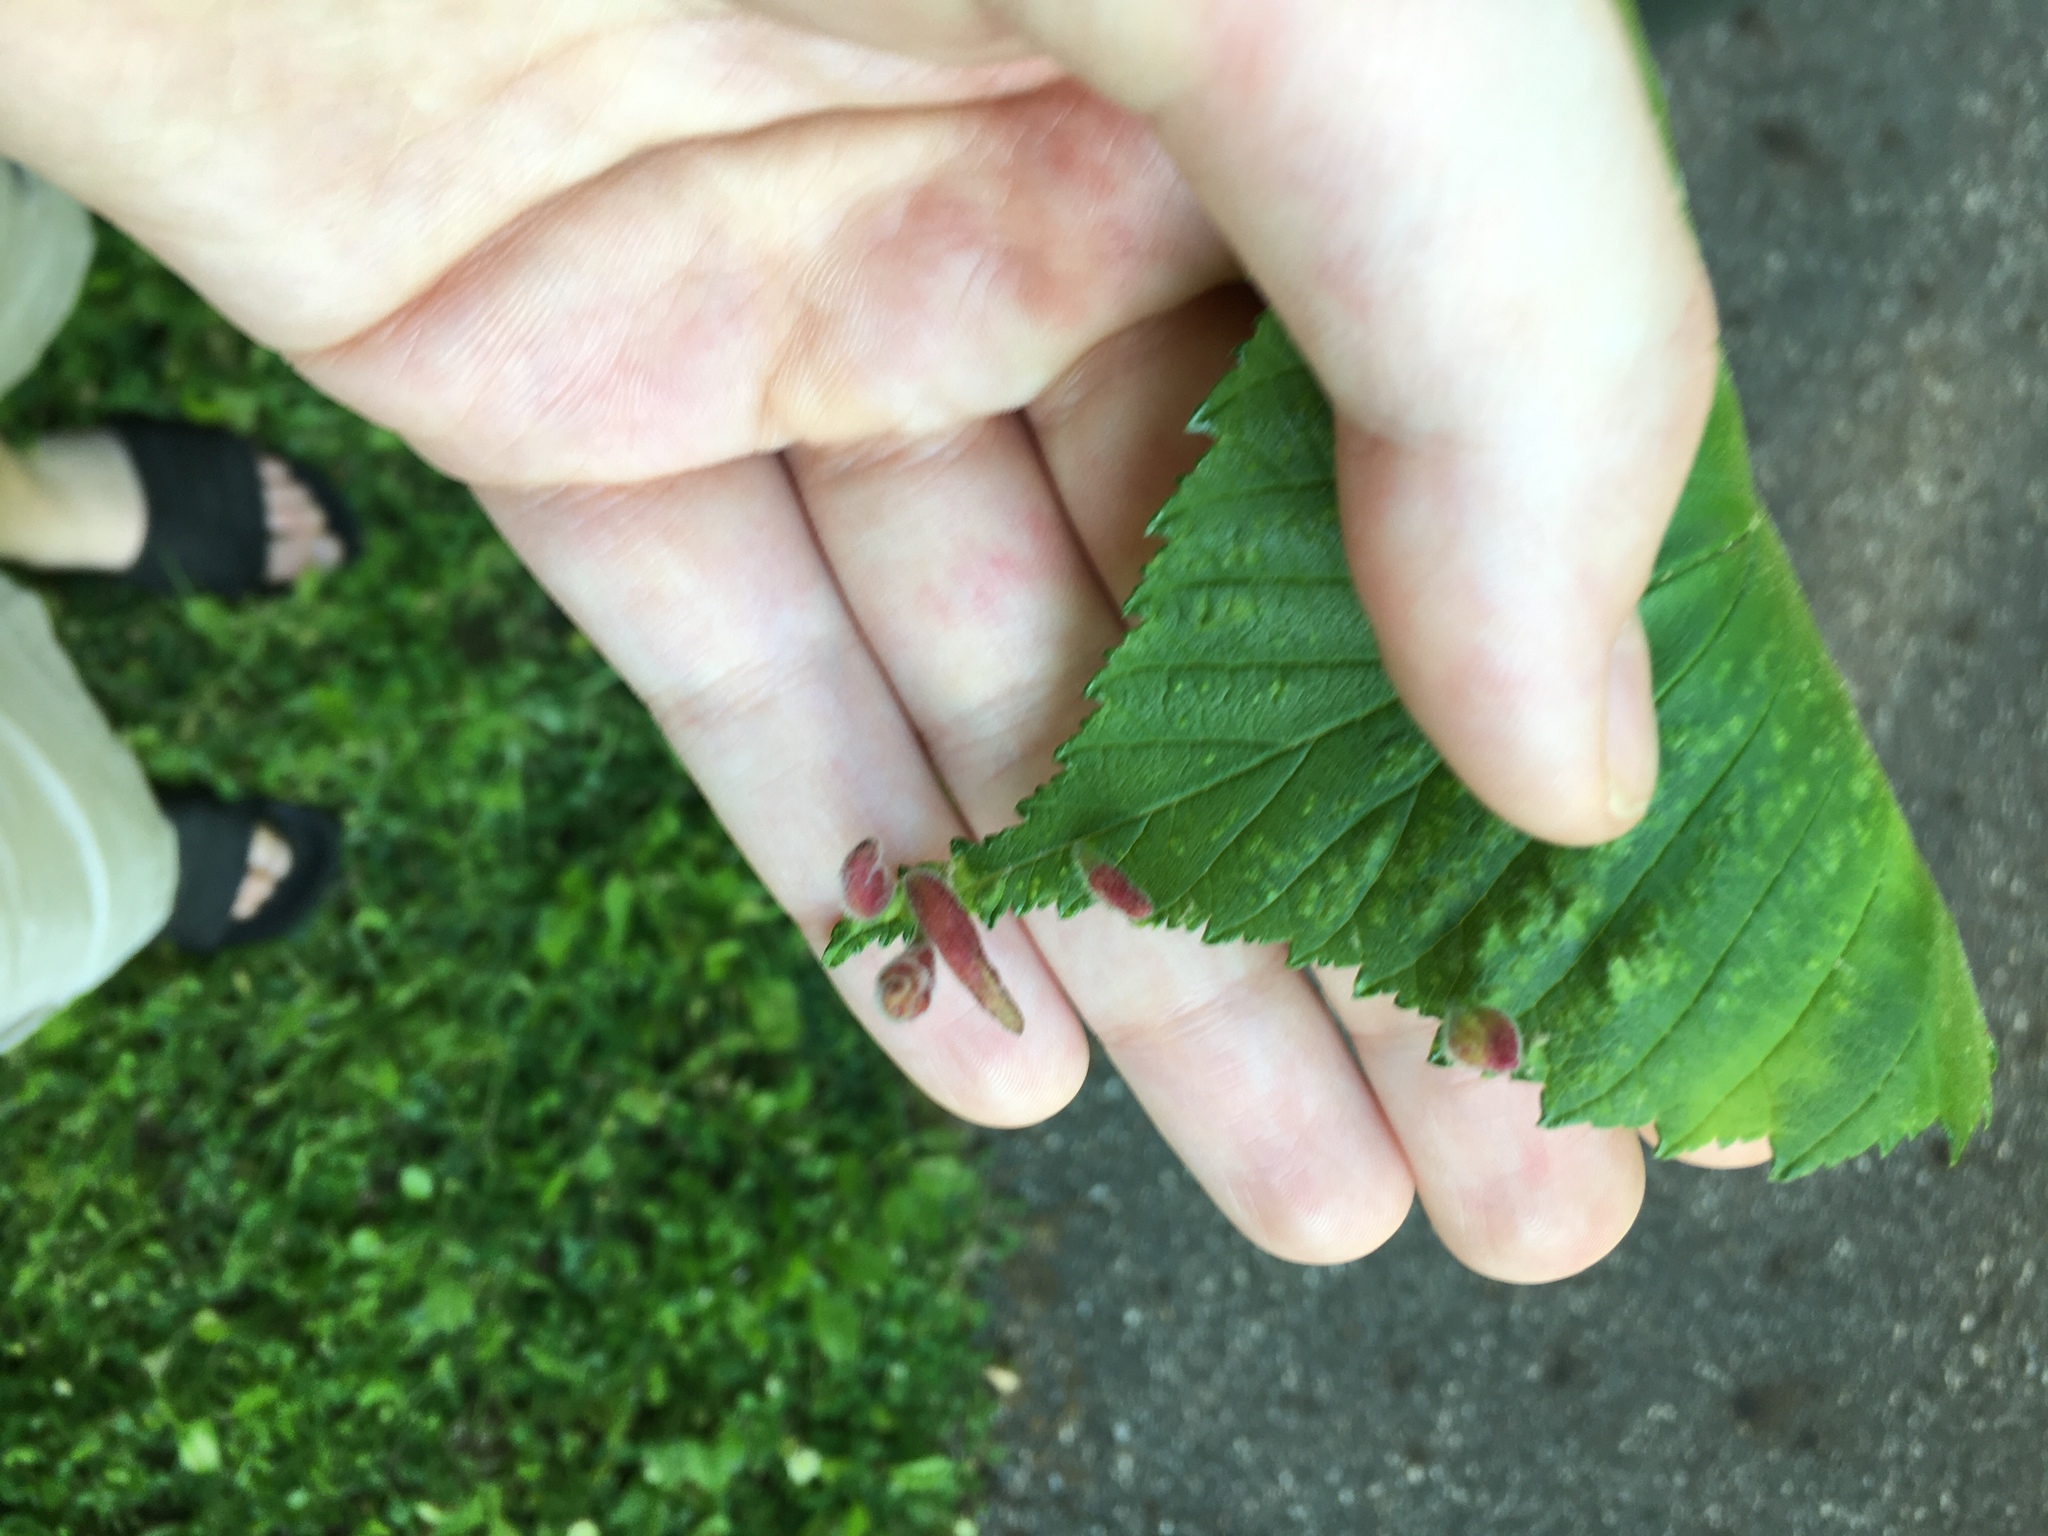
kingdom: Animalia
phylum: Arthropoda
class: Insecta
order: Hemiptera
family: Aphididae
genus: Tetraneura
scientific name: Tetraneura nigriabdominalis
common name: Aphid
